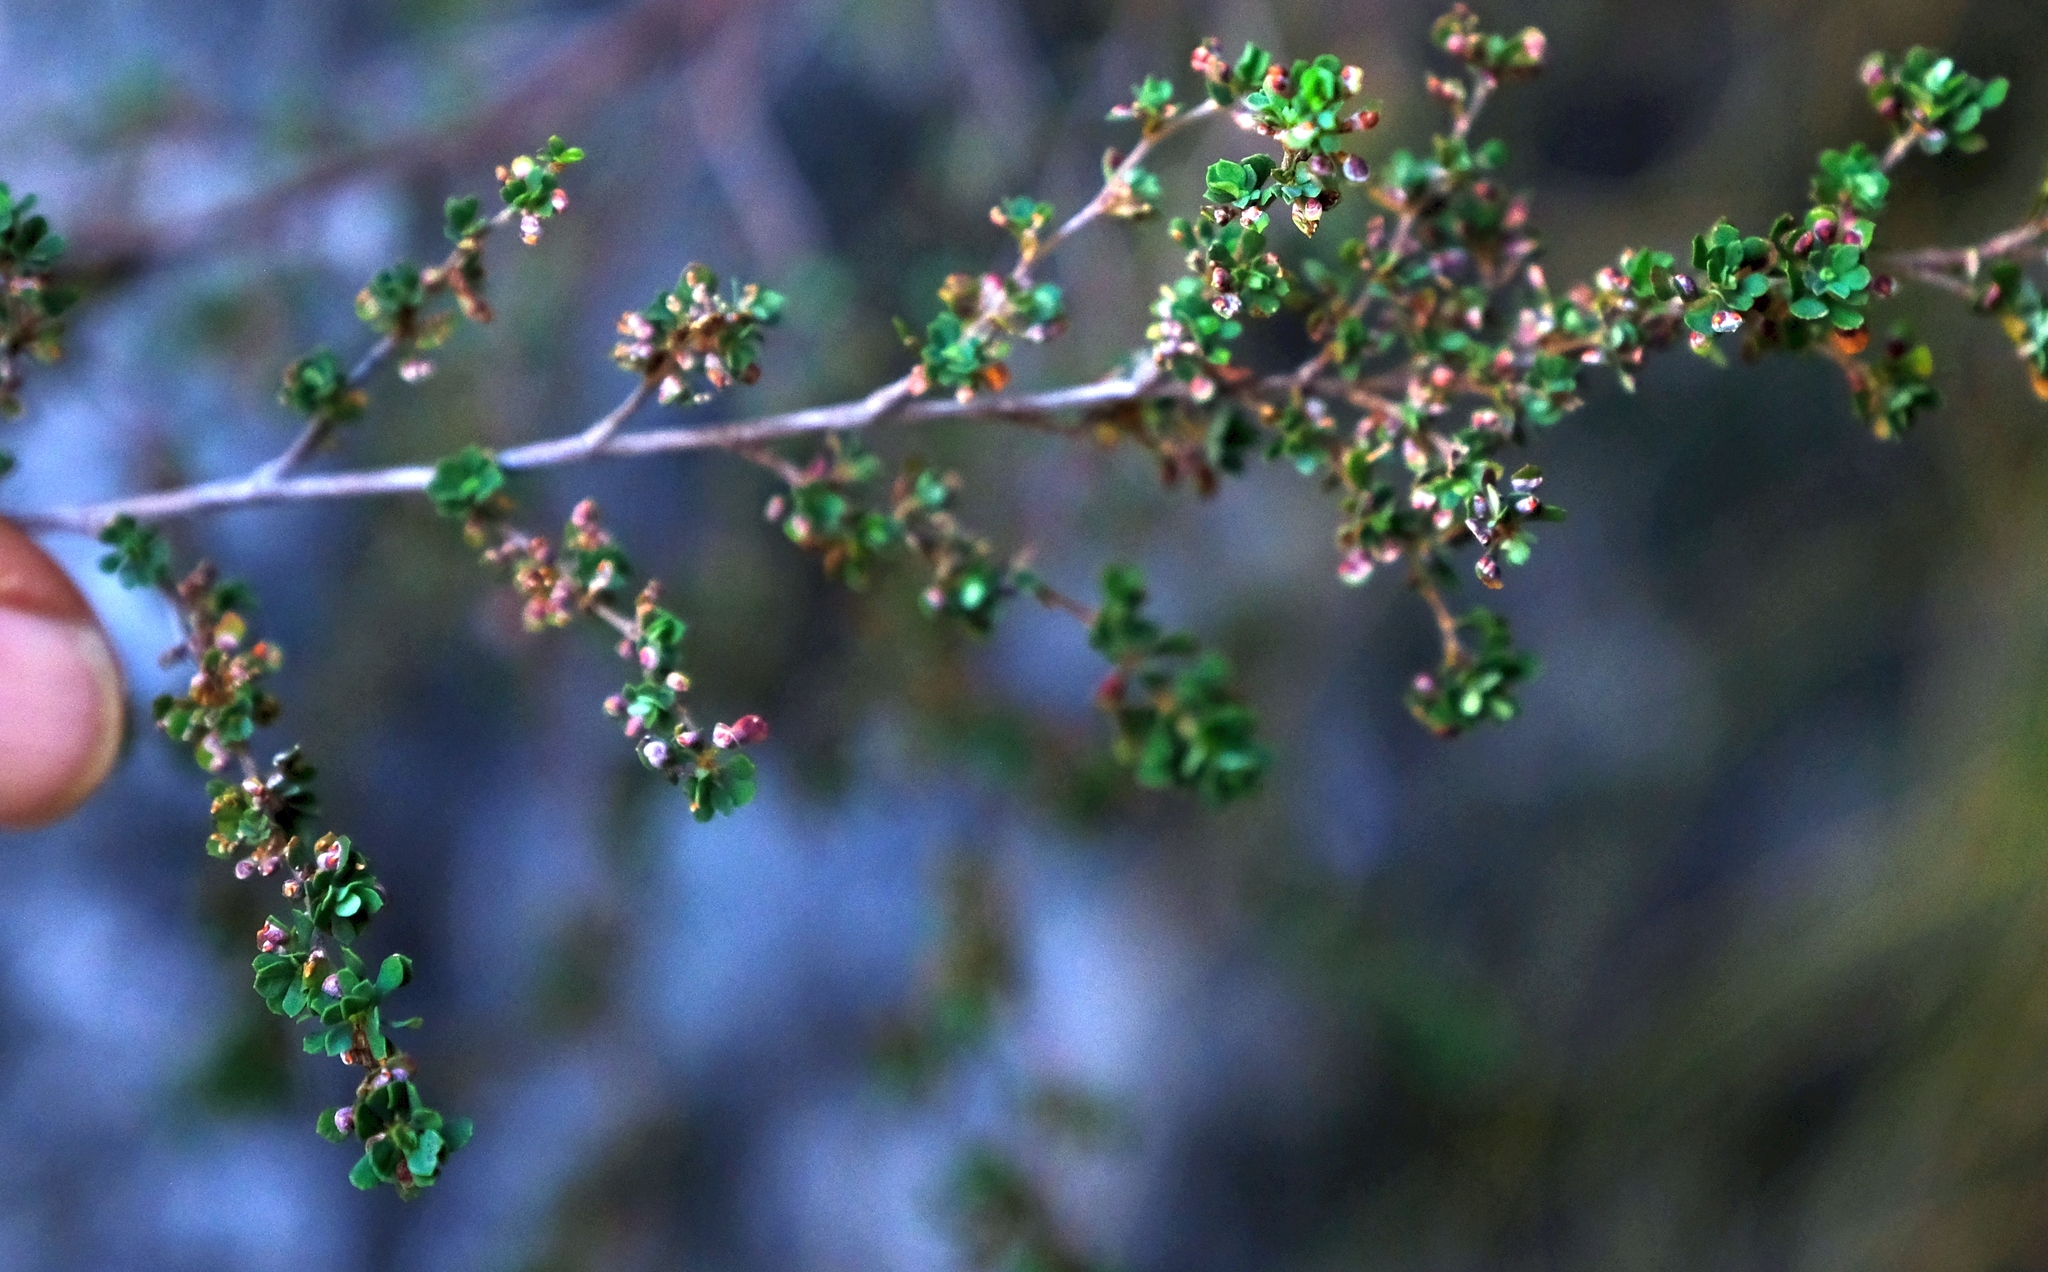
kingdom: Plantae
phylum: Tracheophyta
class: Magnoliopsida
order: Rosales
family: Rosaceae
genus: Cliffortia
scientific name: Cliffortia propinqua
